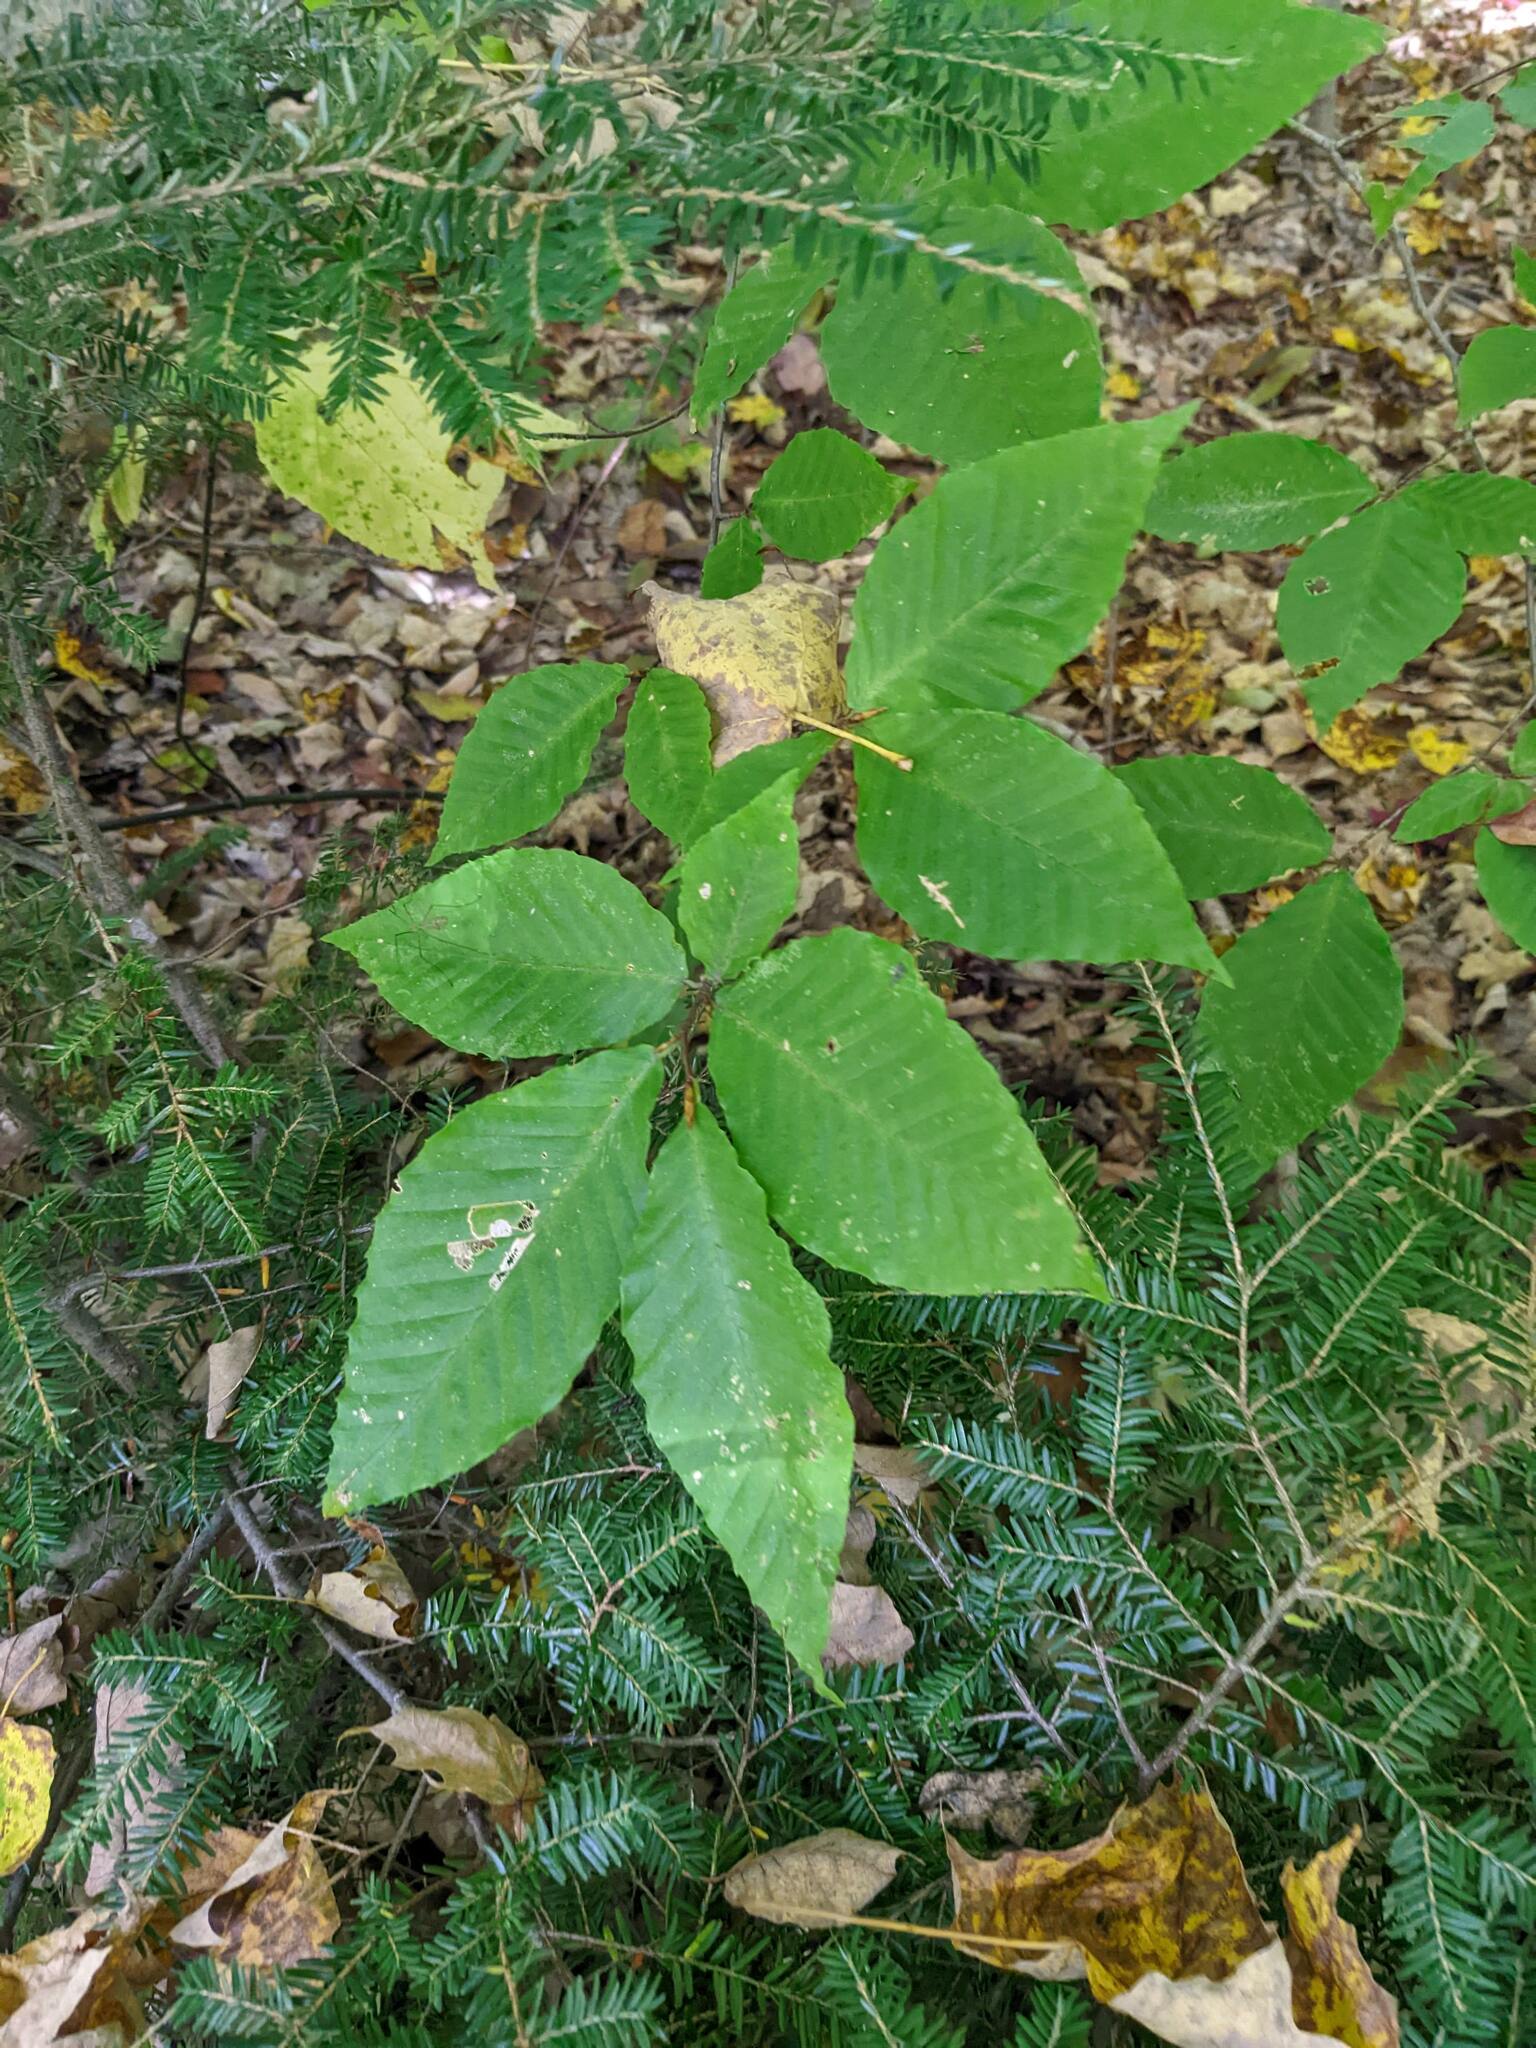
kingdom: Plantae
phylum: Tracheophyta
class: Pinopsida
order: Pinales
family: Pinaceae
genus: Tsuga
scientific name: Tsuga canadensis
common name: Eastern hemlock
